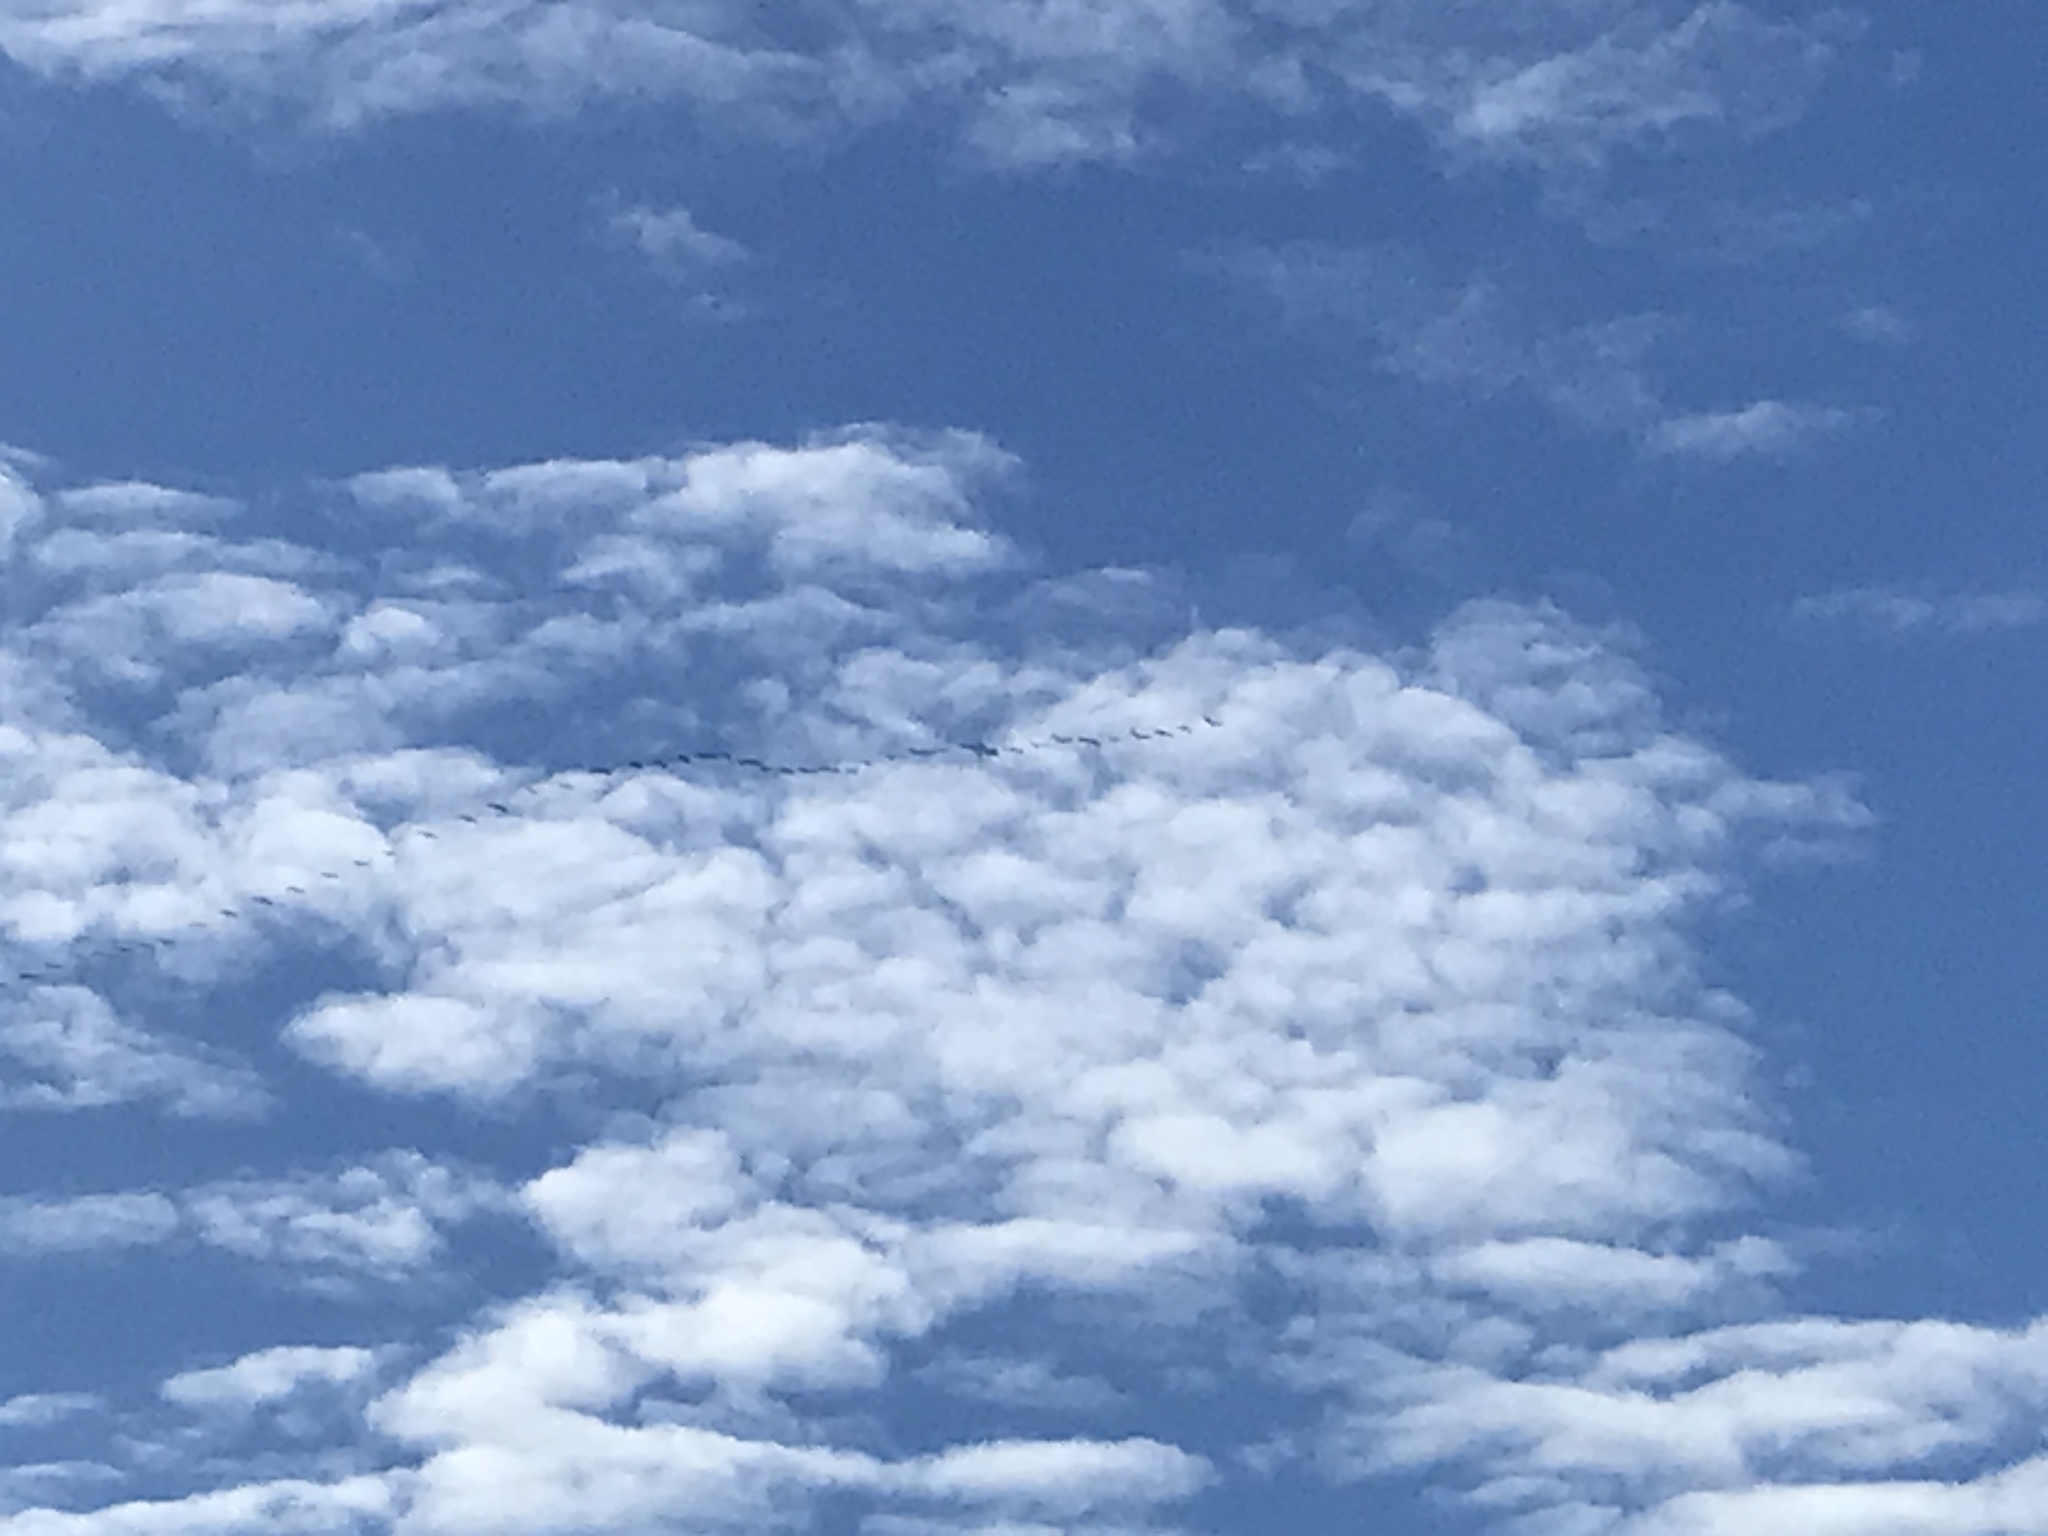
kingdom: Animalia
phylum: Chordata
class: Aves
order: Gruiformes
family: Gruidae
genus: Grus
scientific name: Grus grus
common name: Common crane
